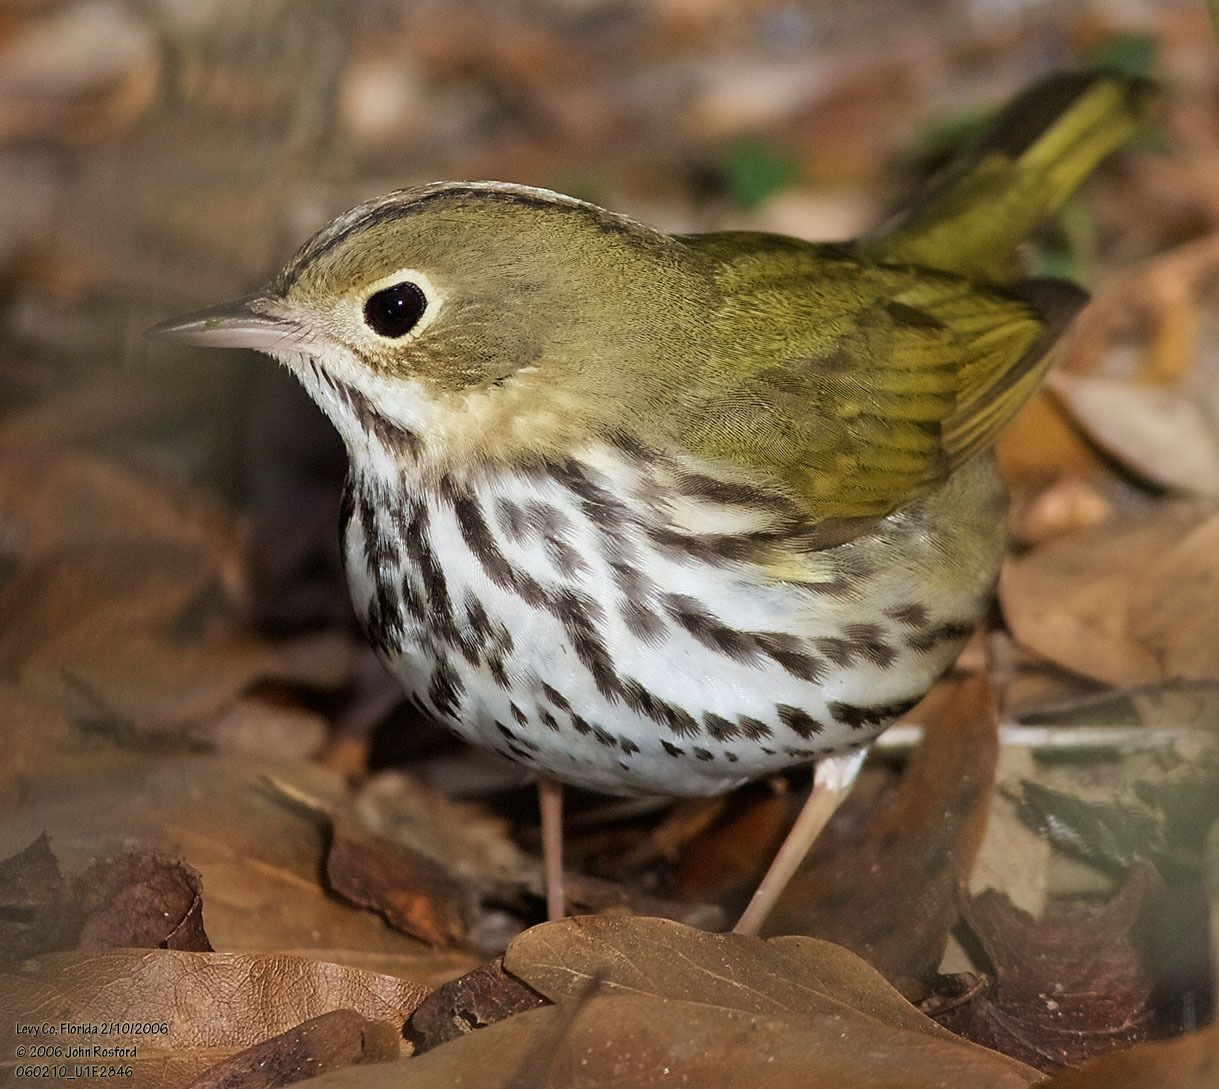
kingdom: Animalia
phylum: Chordata
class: Aves
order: Passeriformes
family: Parulidae
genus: Seiurus
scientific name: Seiurus aurocapilla
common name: Ovenbird
